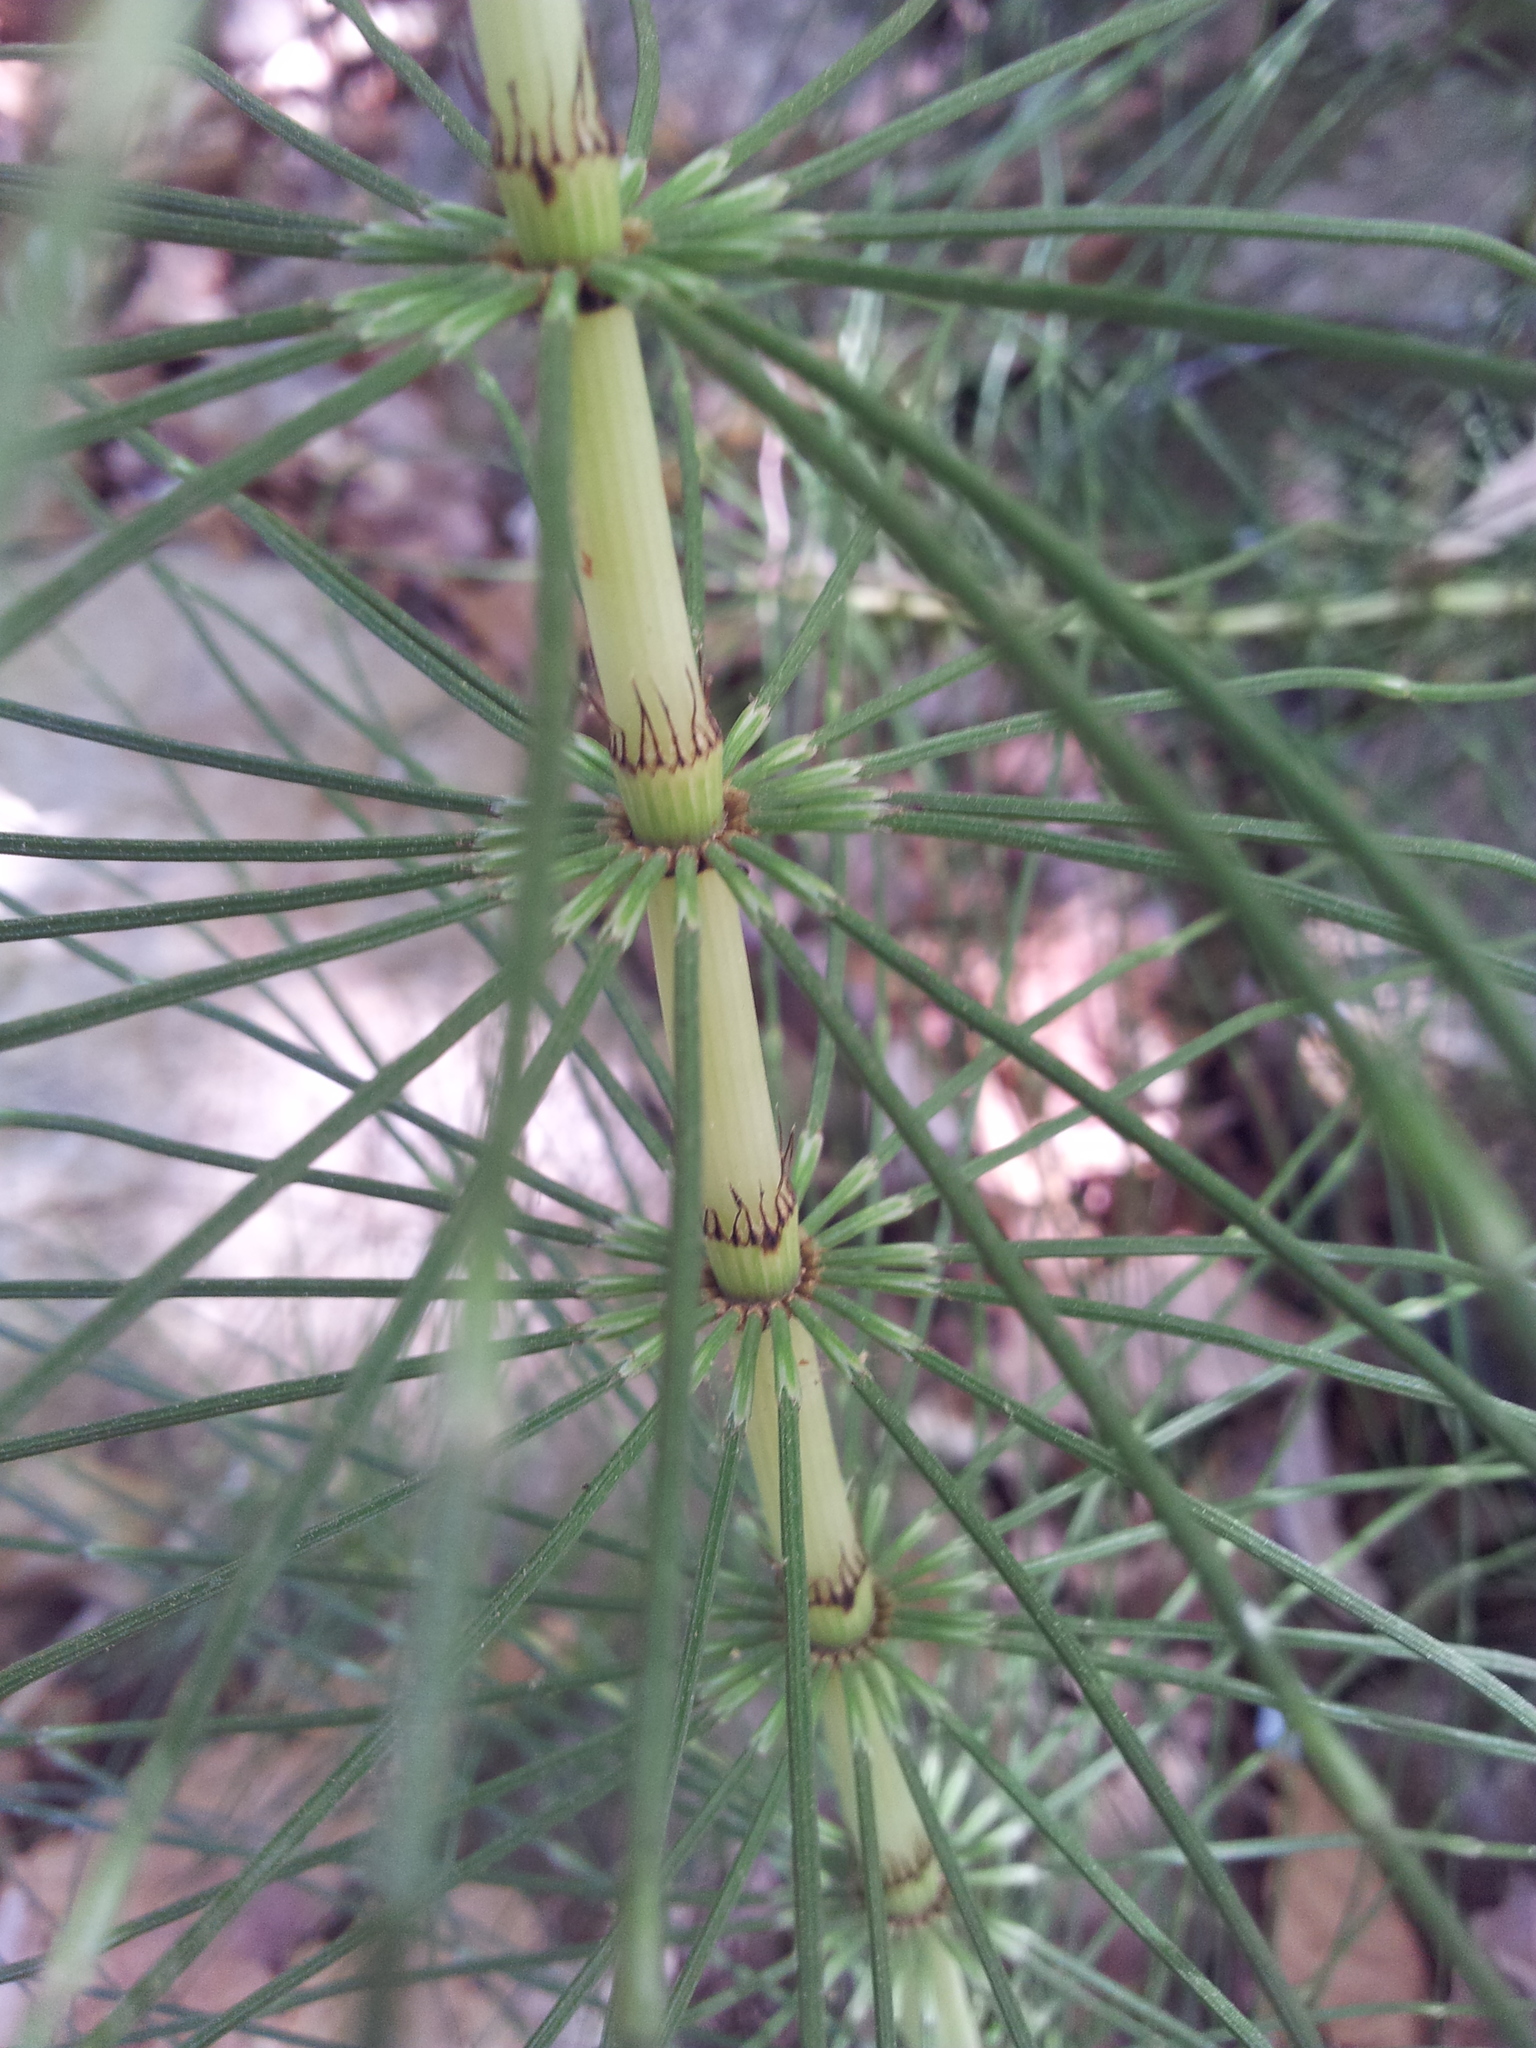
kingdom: Plantae
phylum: Tracheophyta
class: Polypodiopsida
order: Equisetales
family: Equisetaceae
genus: Equisetum
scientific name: Equisetum telmateia
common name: Great horsetail
